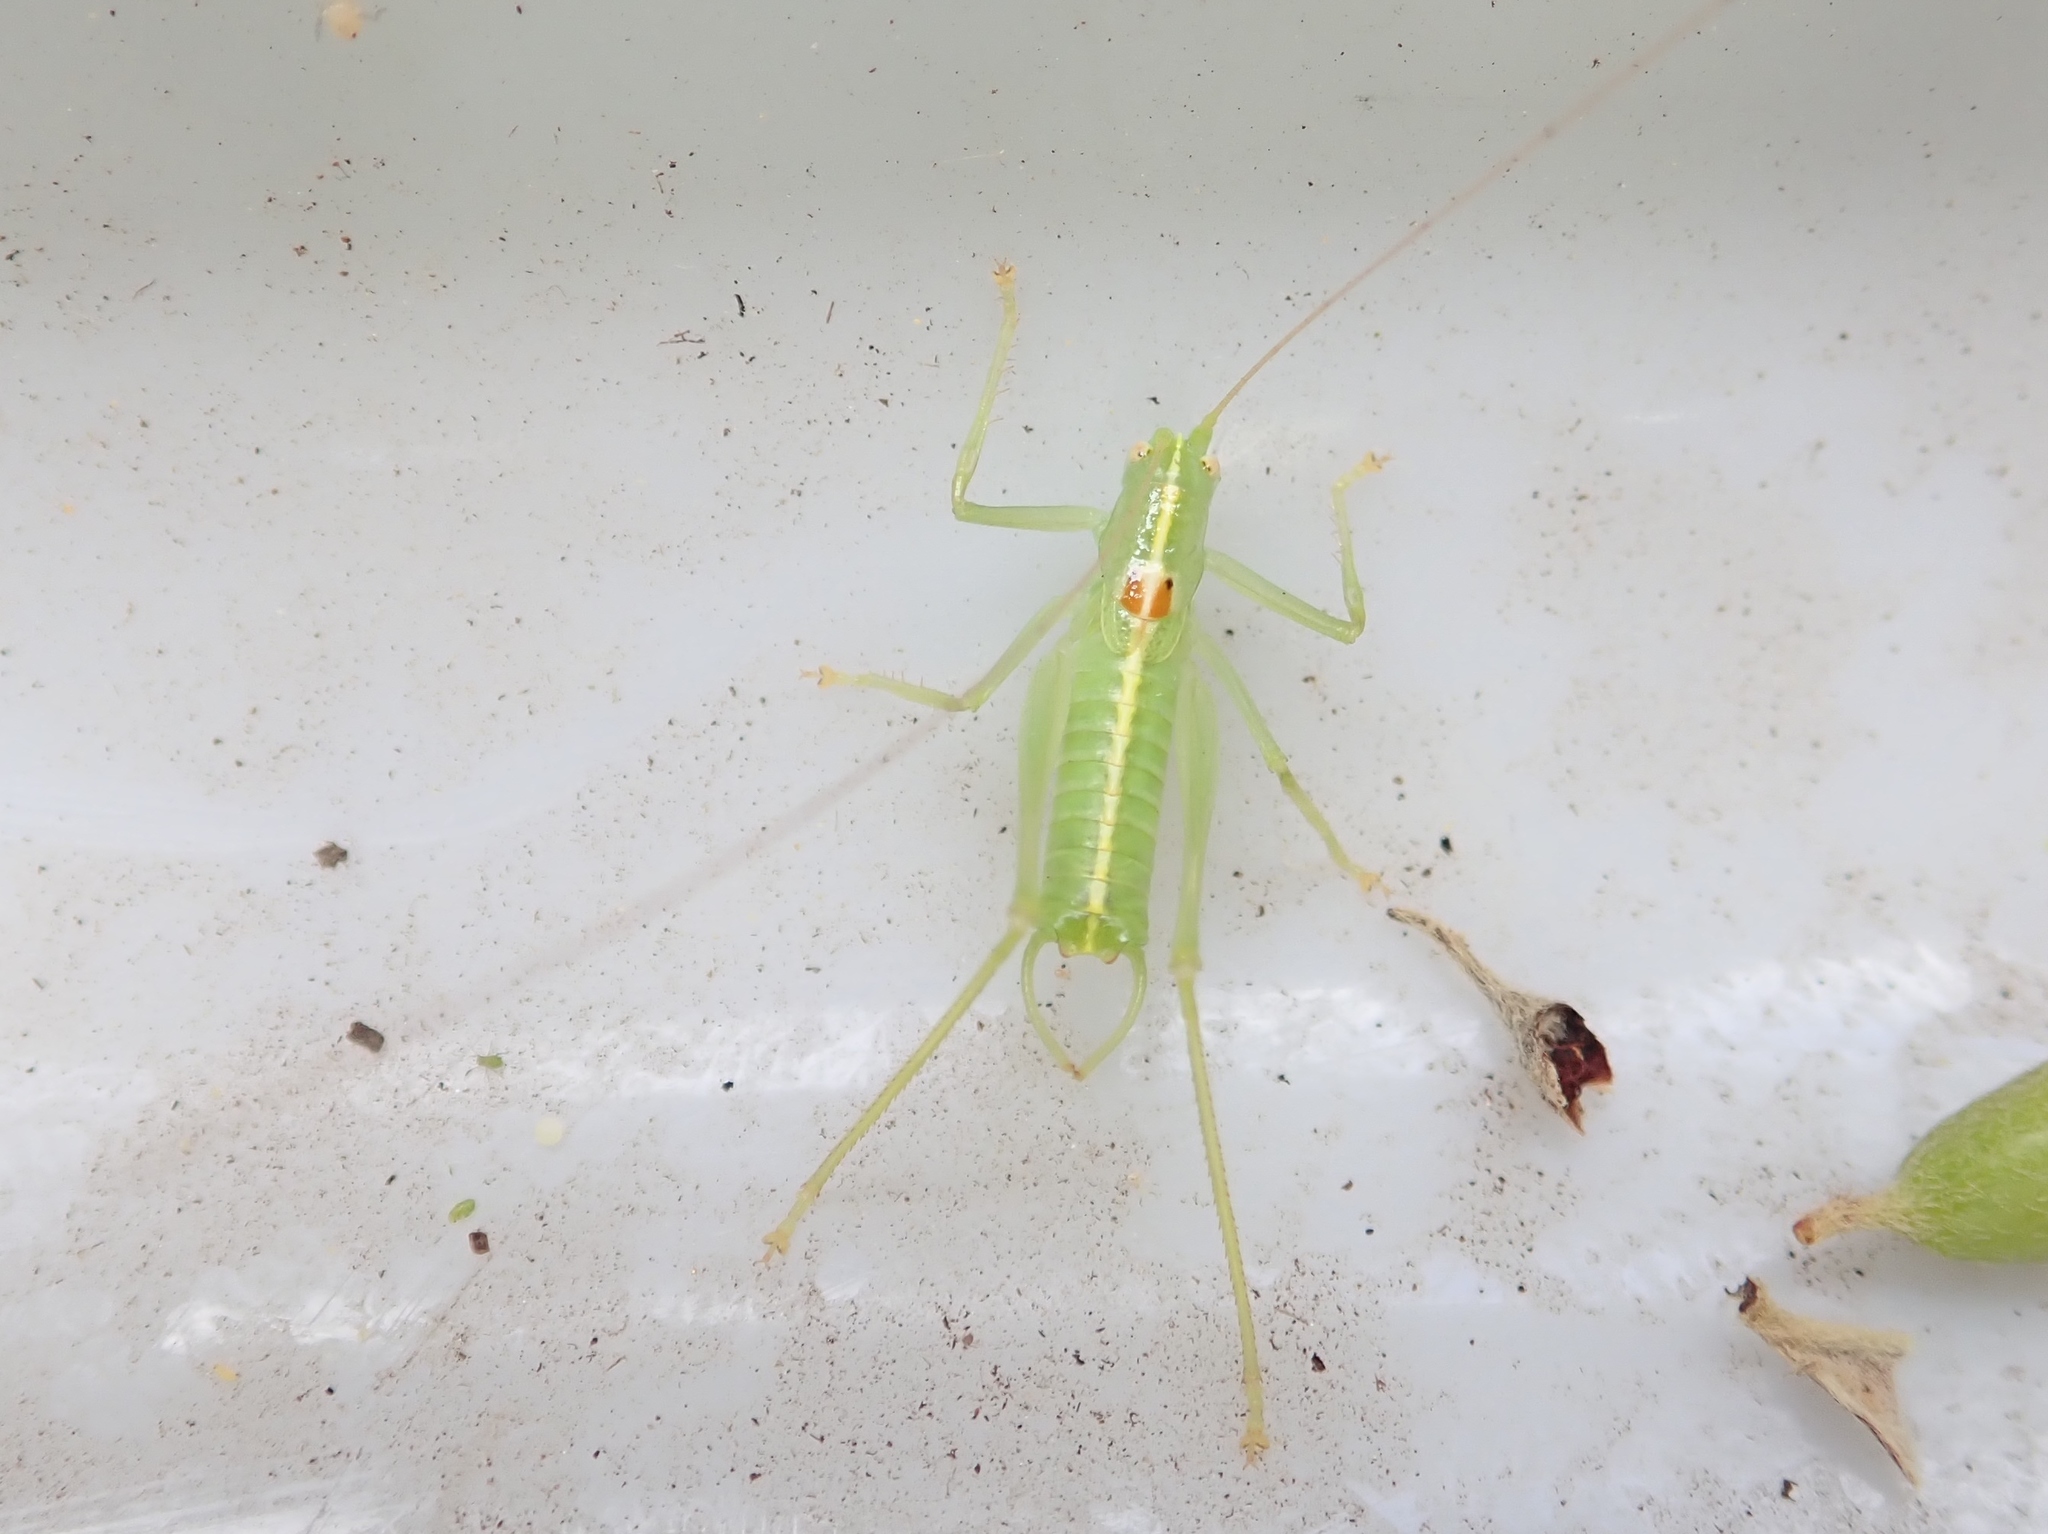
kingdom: Animalia
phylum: Arthropoda
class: Insecta
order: Orthoptera
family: Tettigoniidae
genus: Meconema
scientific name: Meconema meridionale
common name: Southern oak bush-cricket
